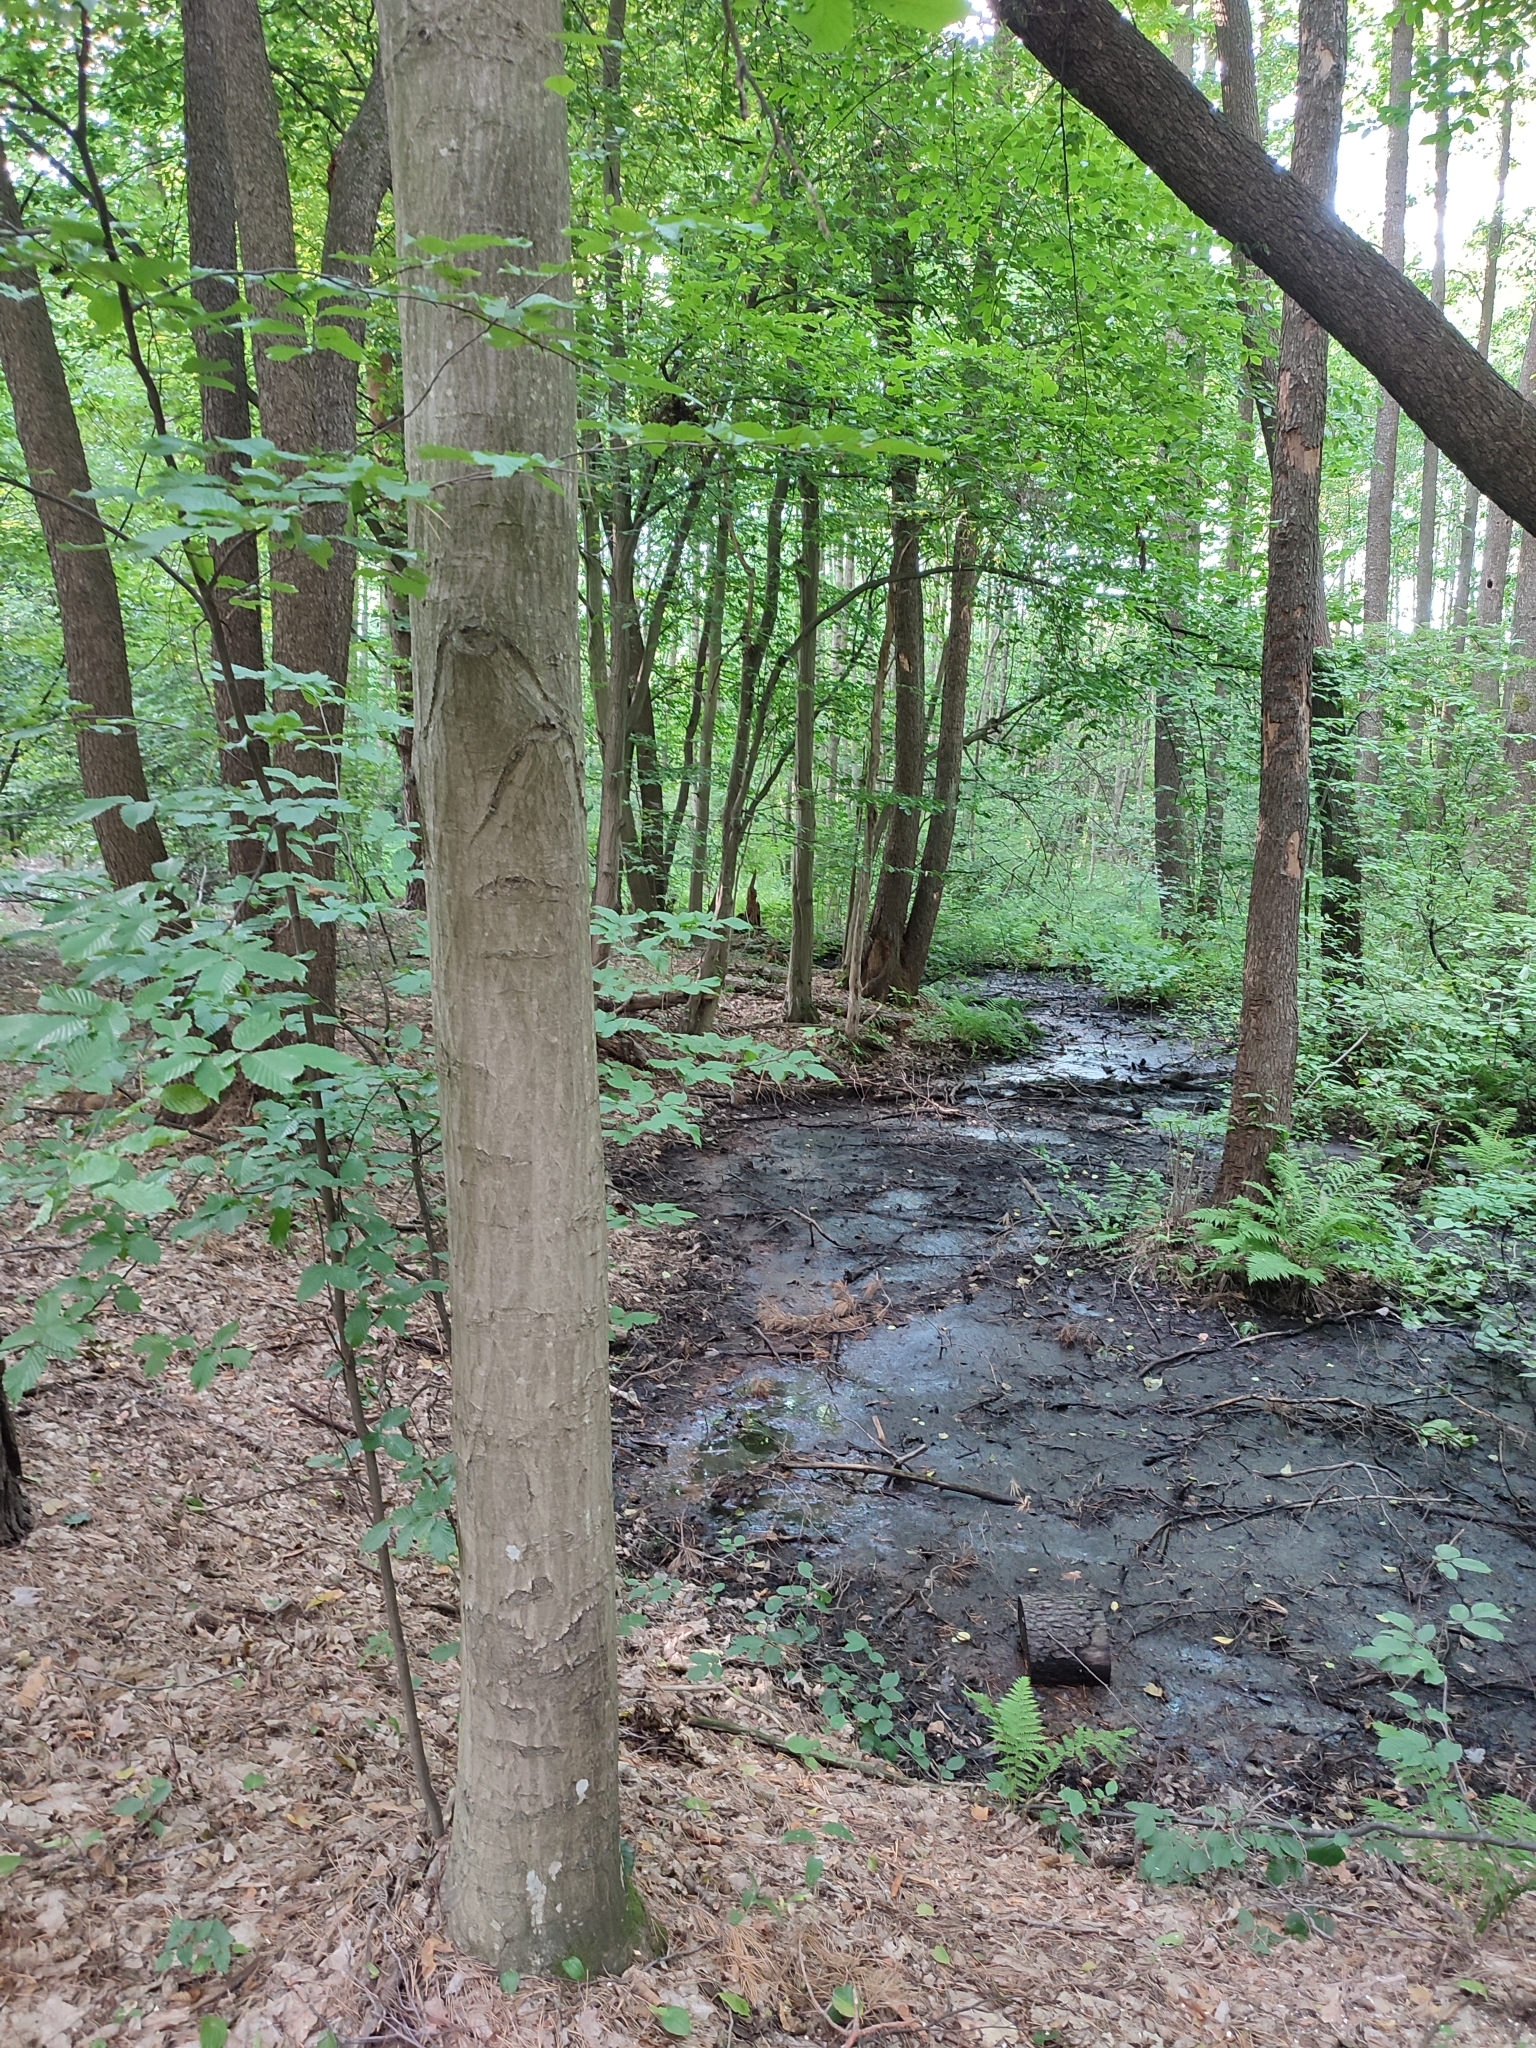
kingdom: Plantae
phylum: Tracheophyta
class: Magnoliopsida
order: Fagales
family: Betulaceae
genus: Carpinus
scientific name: Carpinus betulus
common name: Hornbeam
